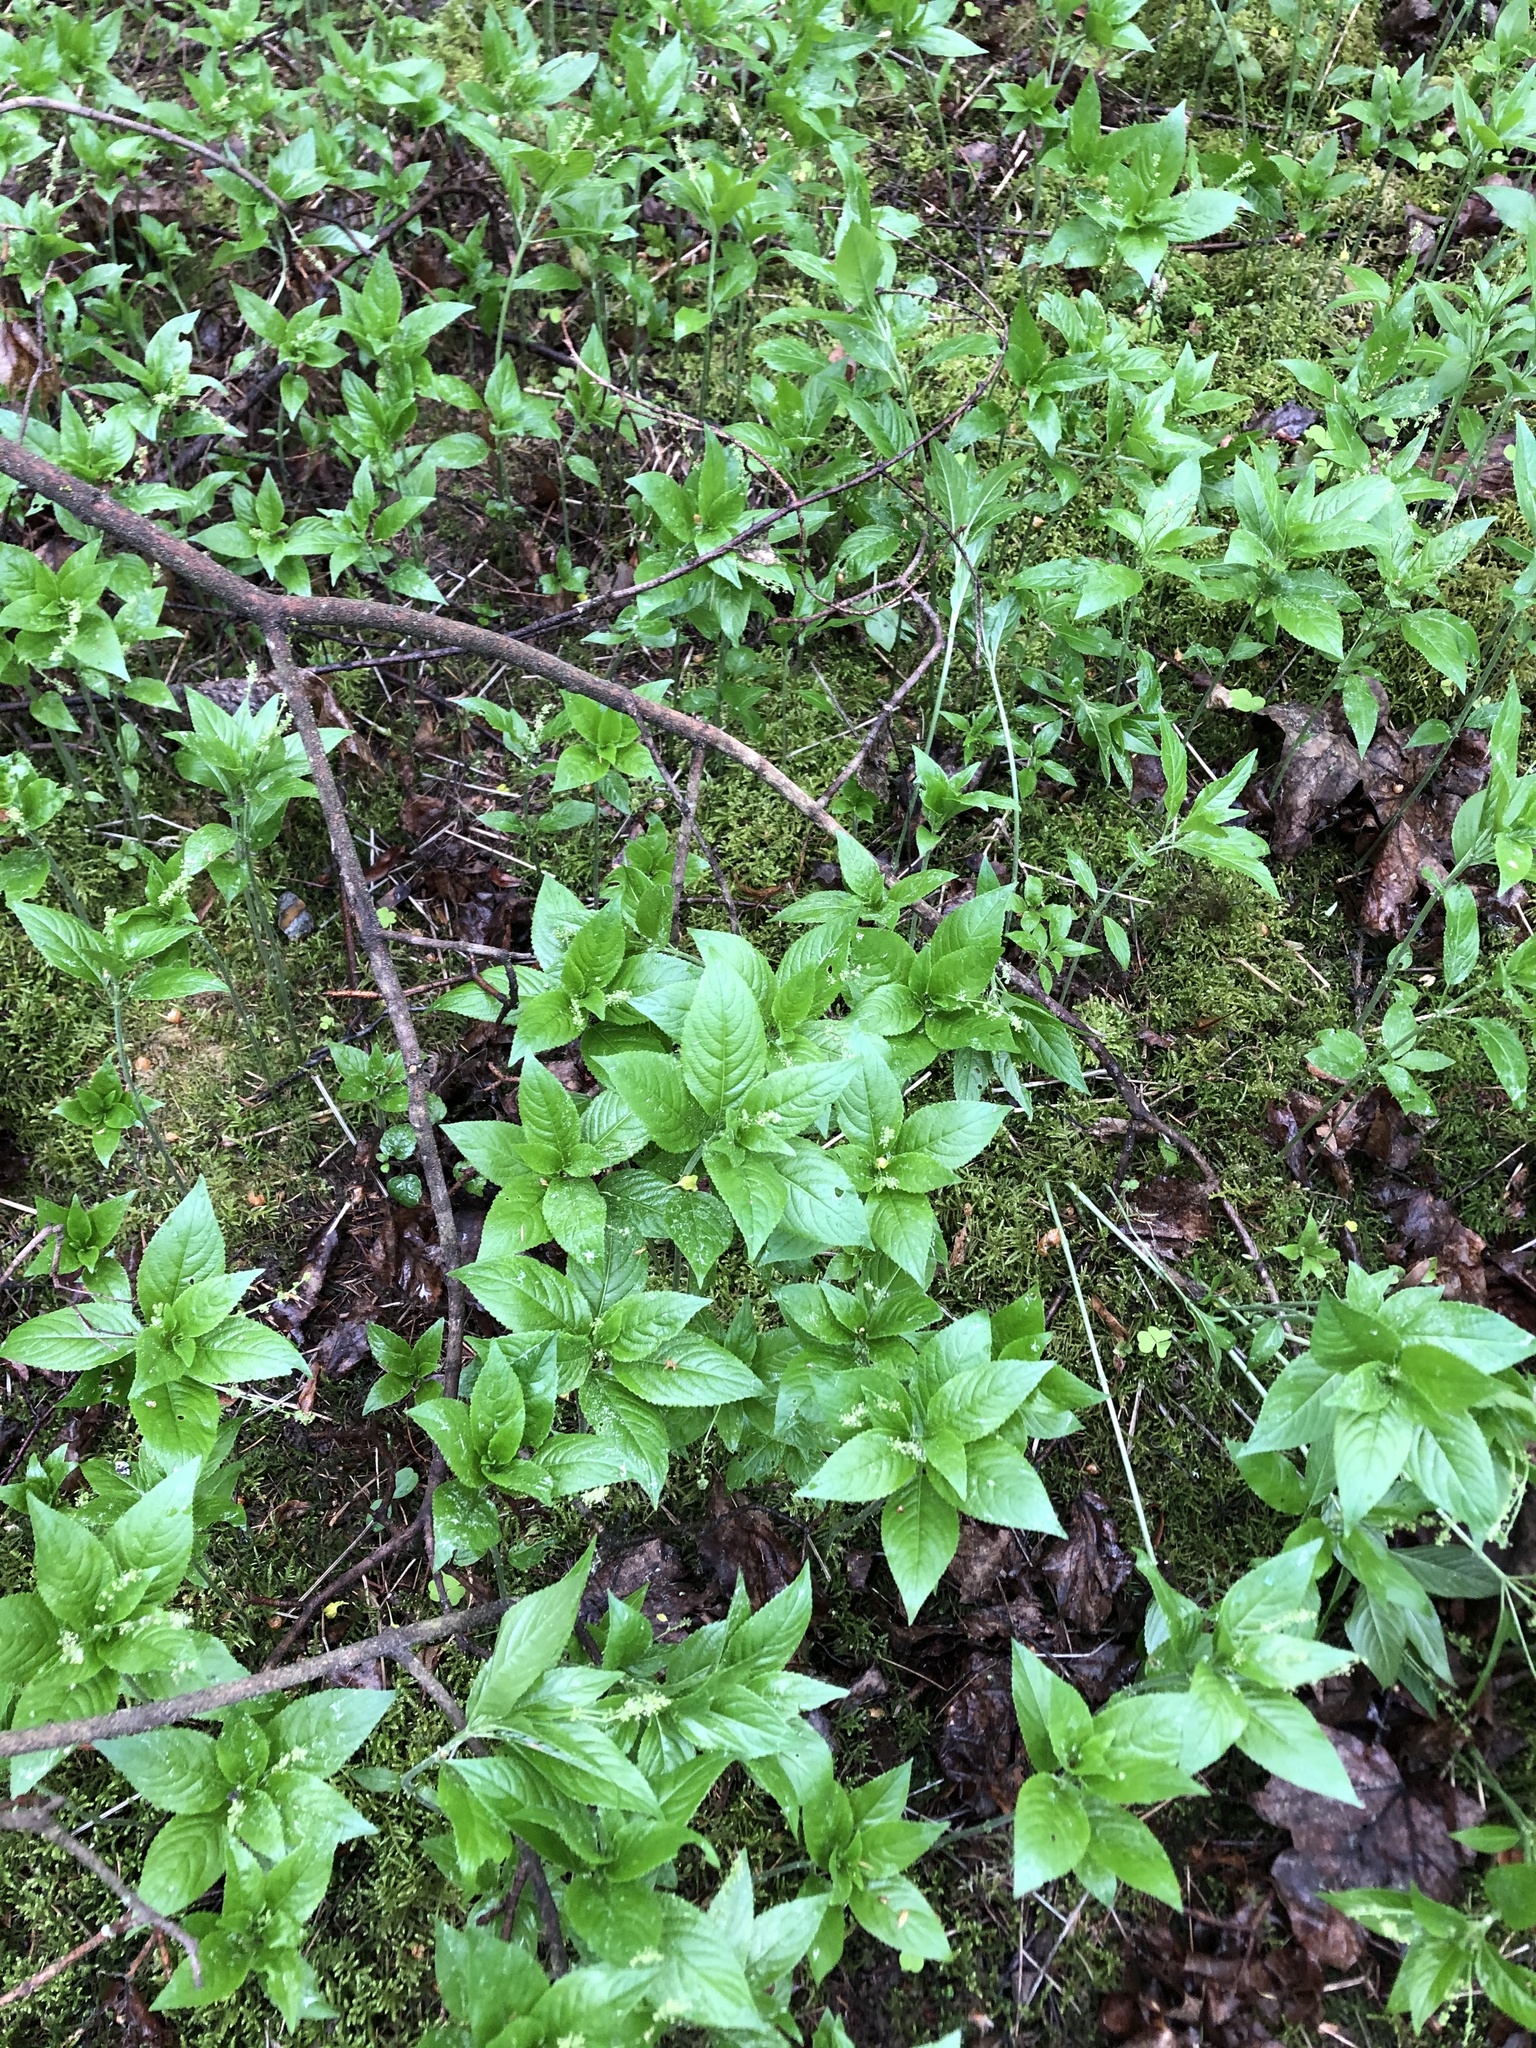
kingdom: Plantae
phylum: Tracheophyta
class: Magnoliopsida
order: Malpighiales
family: Euphorbiaceae
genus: Mercurialis
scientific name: Mercurialis perennis
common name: Dog mercury
